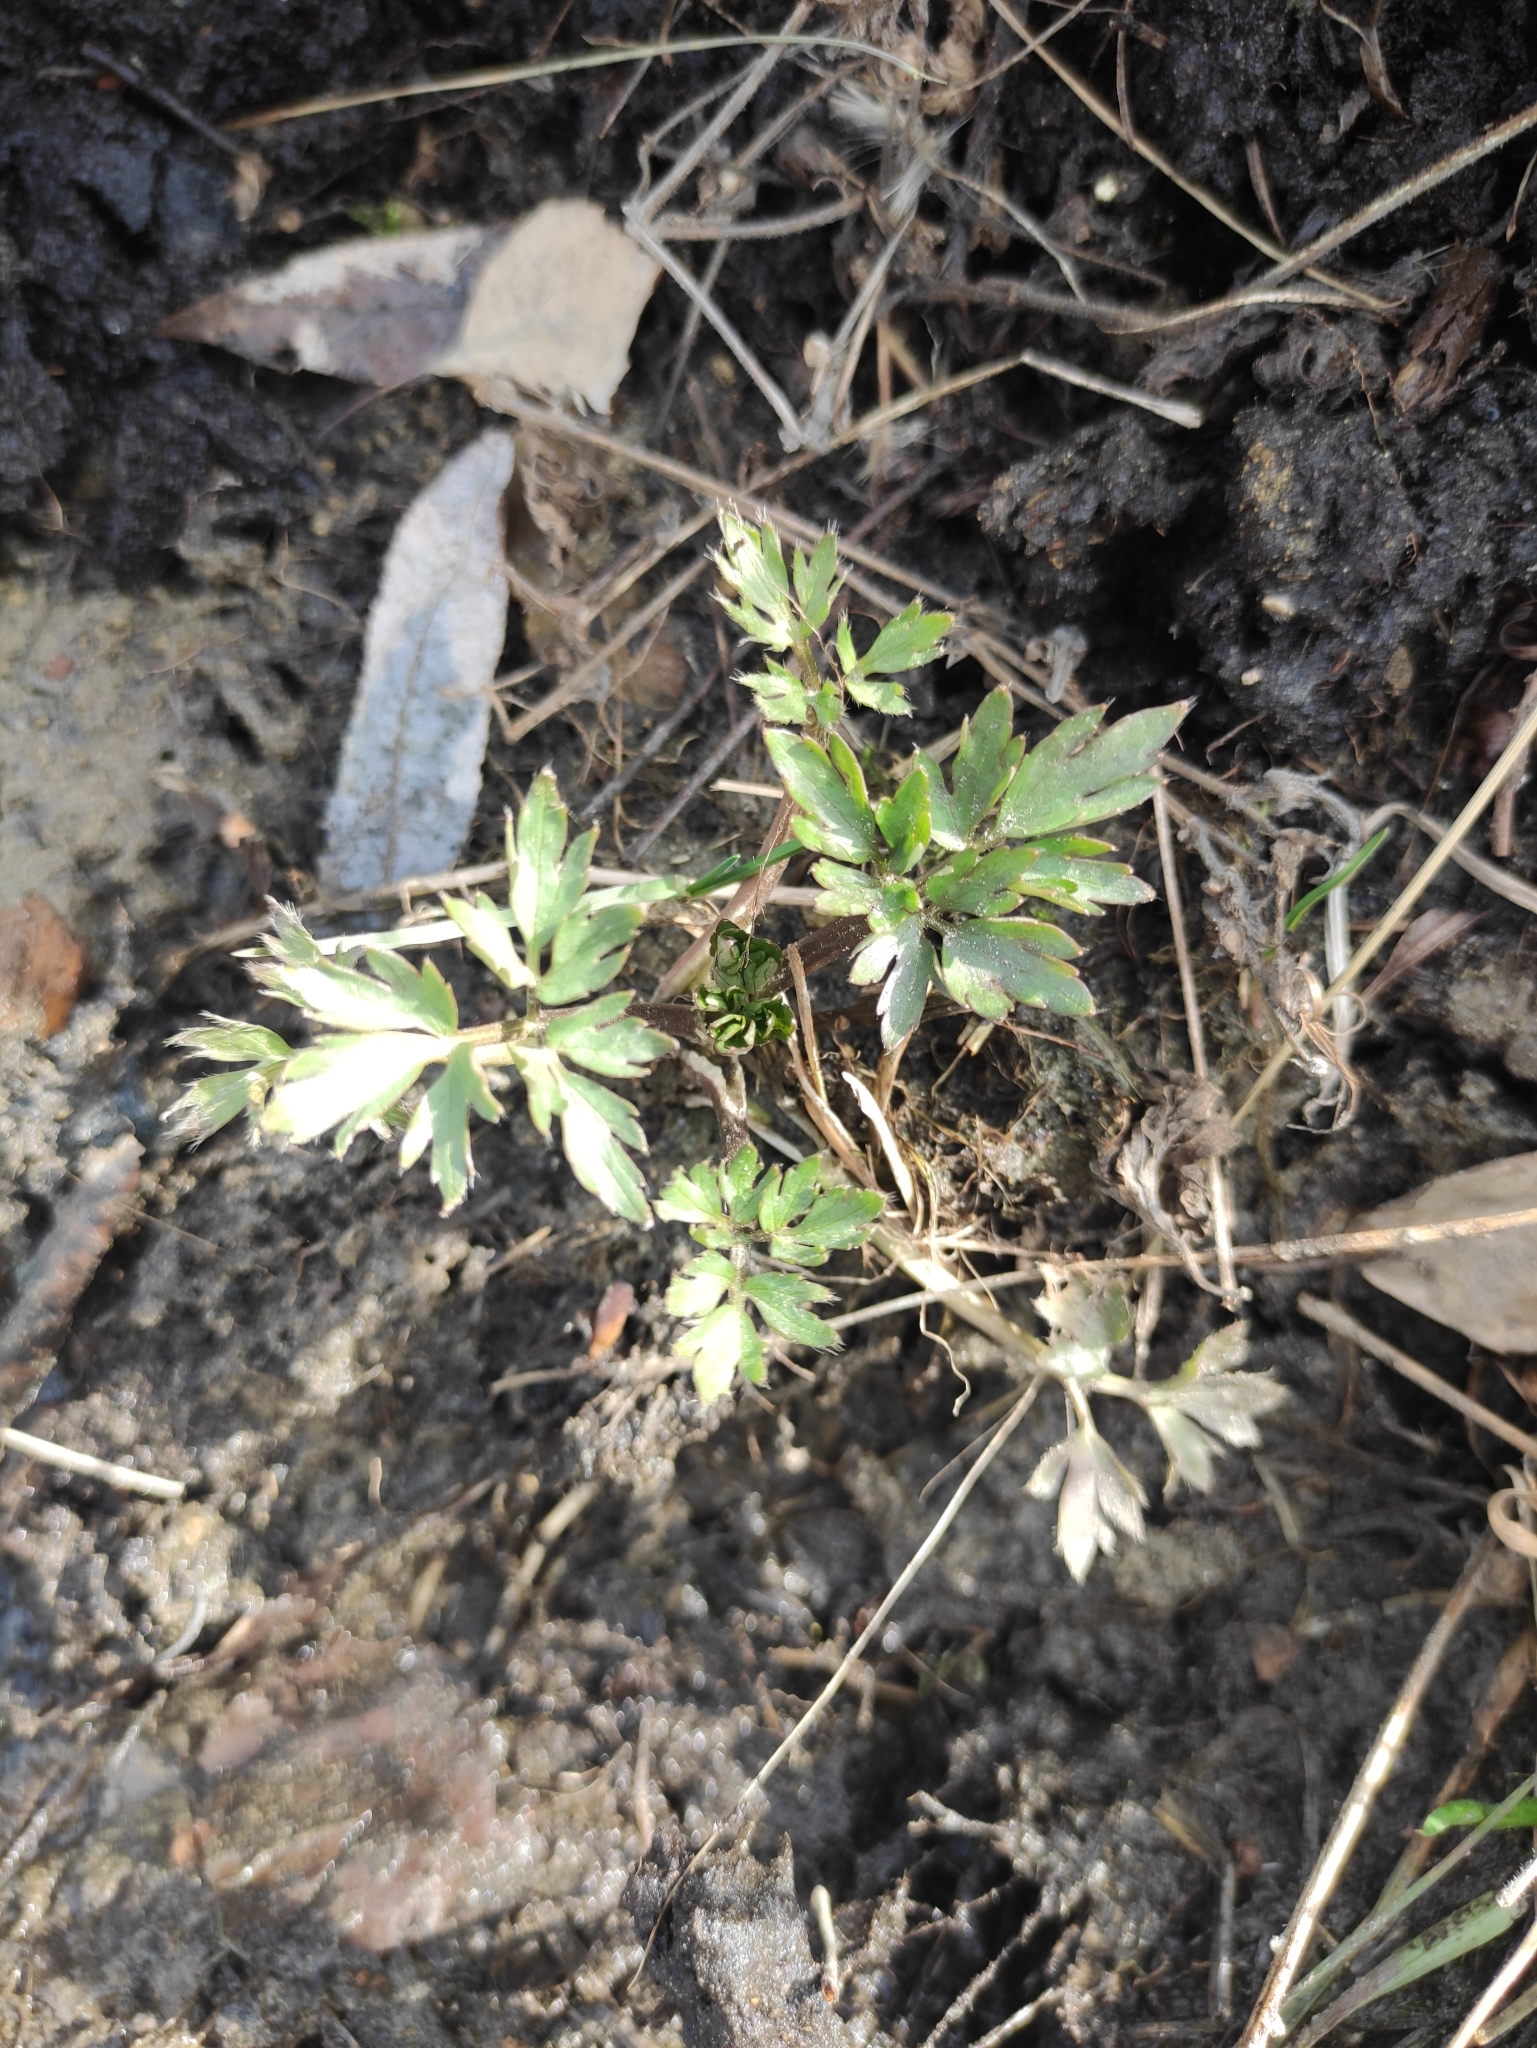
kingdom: Plantae
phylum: Tracheophyta
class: Magnoliopsida
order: Ranunculales
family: Ranunculaceae
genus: Ranunculus
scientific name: Ranunculus repens
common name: Creeping buttercup
